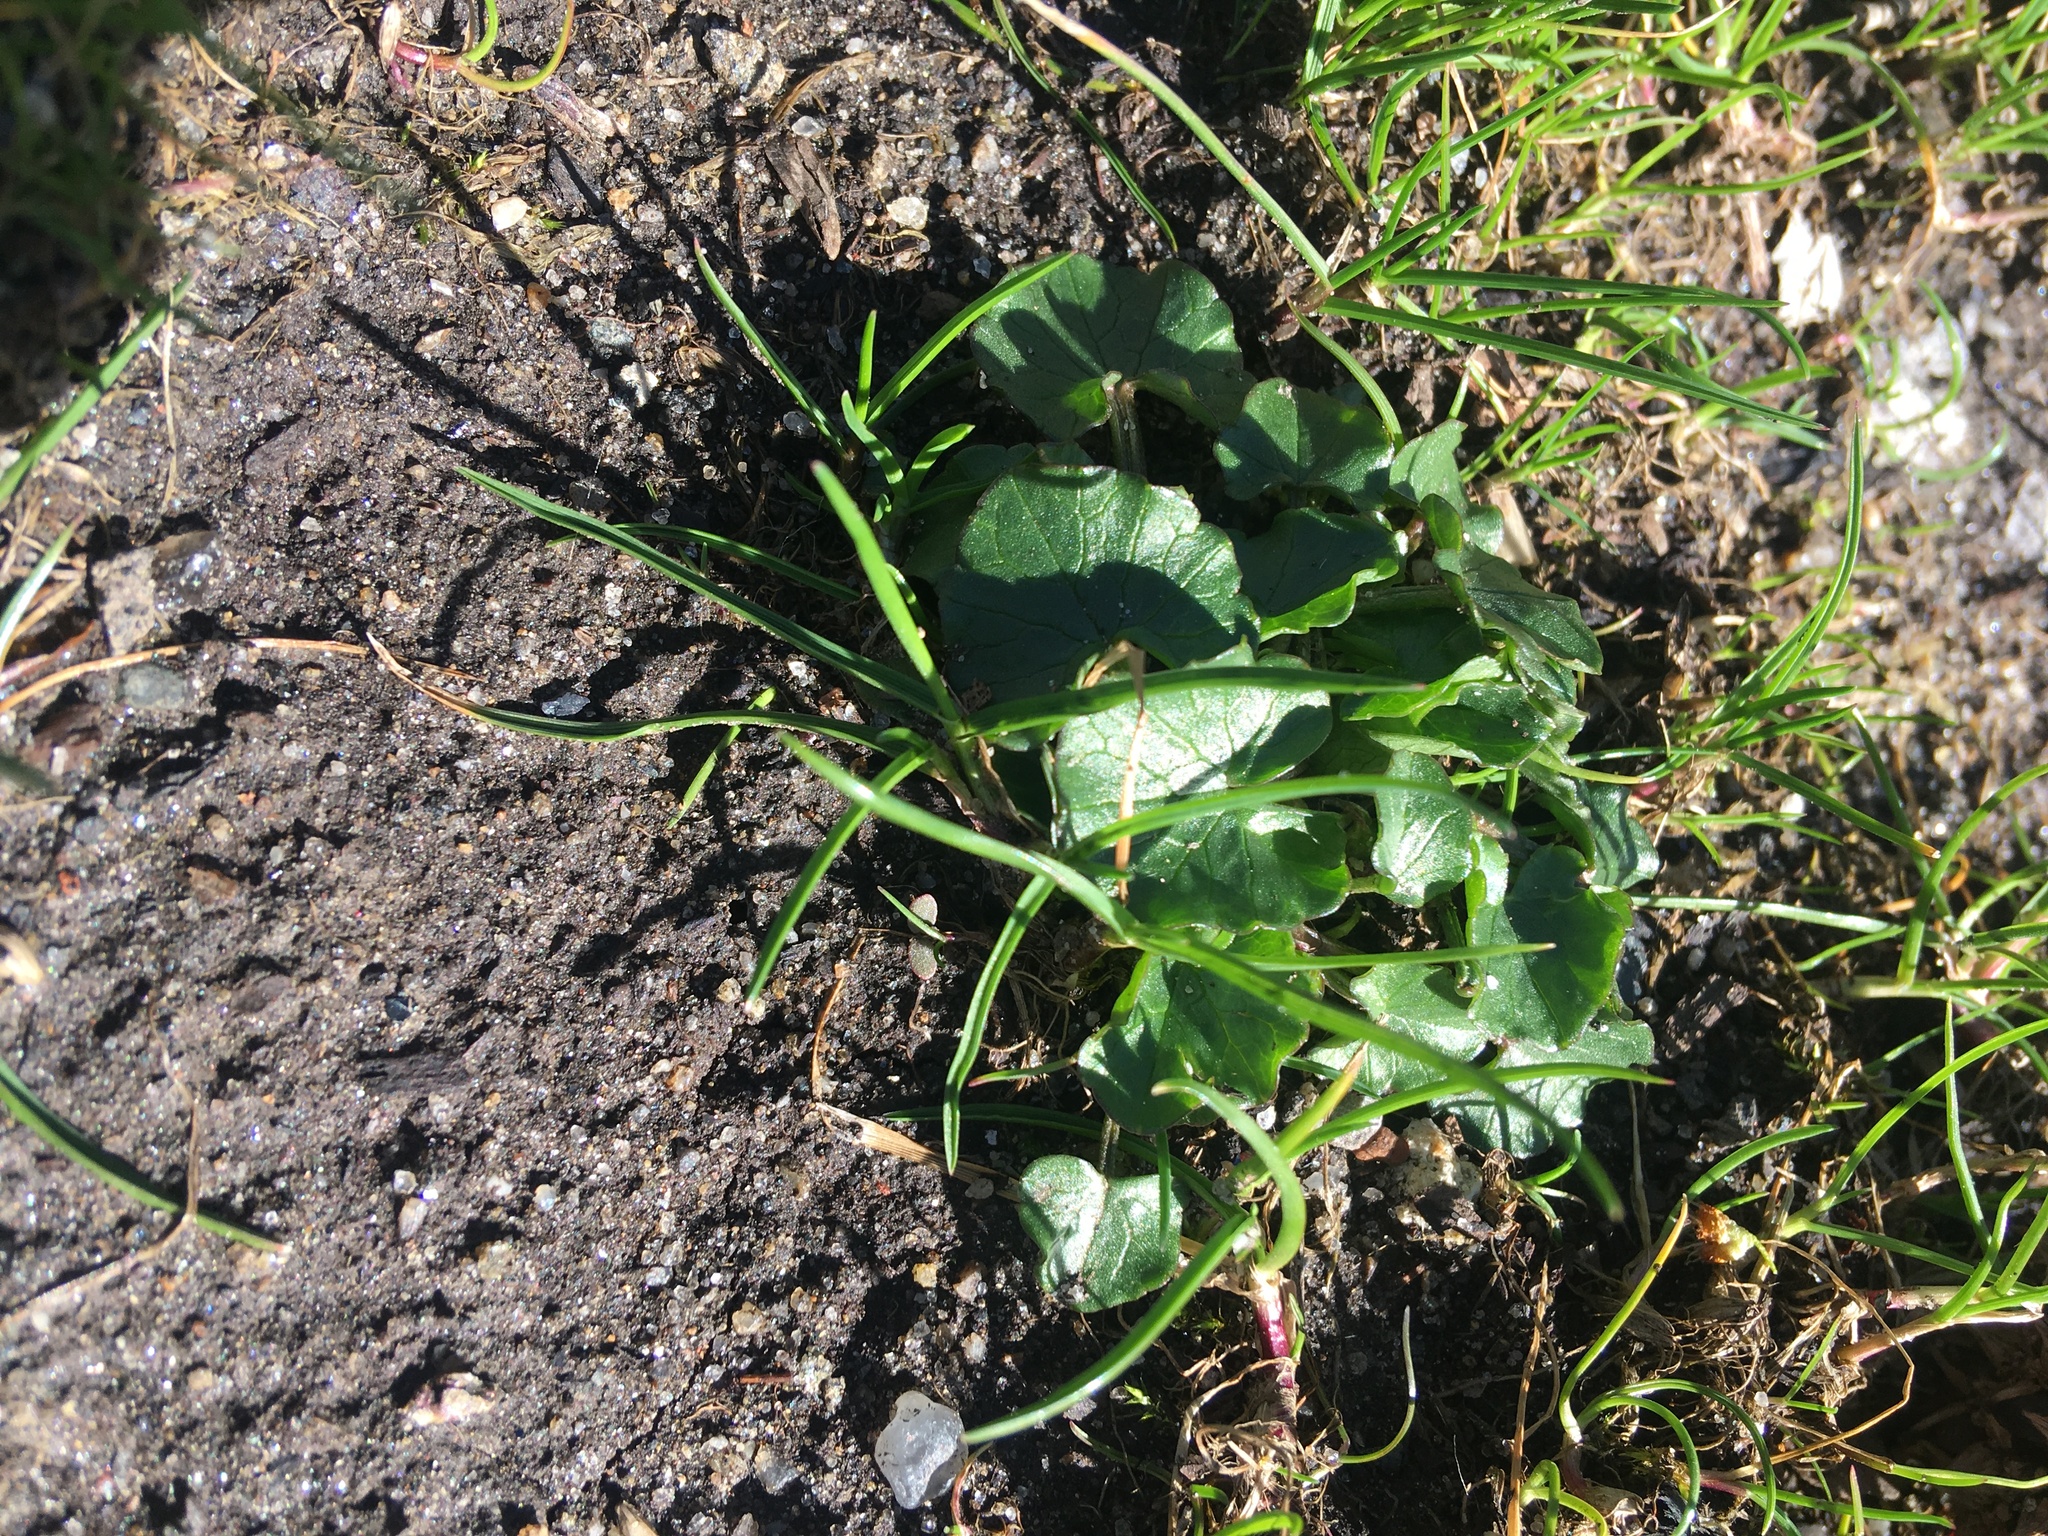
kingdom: Plantae
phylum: Tracheophyta
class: Magnoliopsida
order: Ranunculales
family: Ranunculaceae
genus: Ficaria
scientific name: Ficaria verna
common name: Lesser celandine
